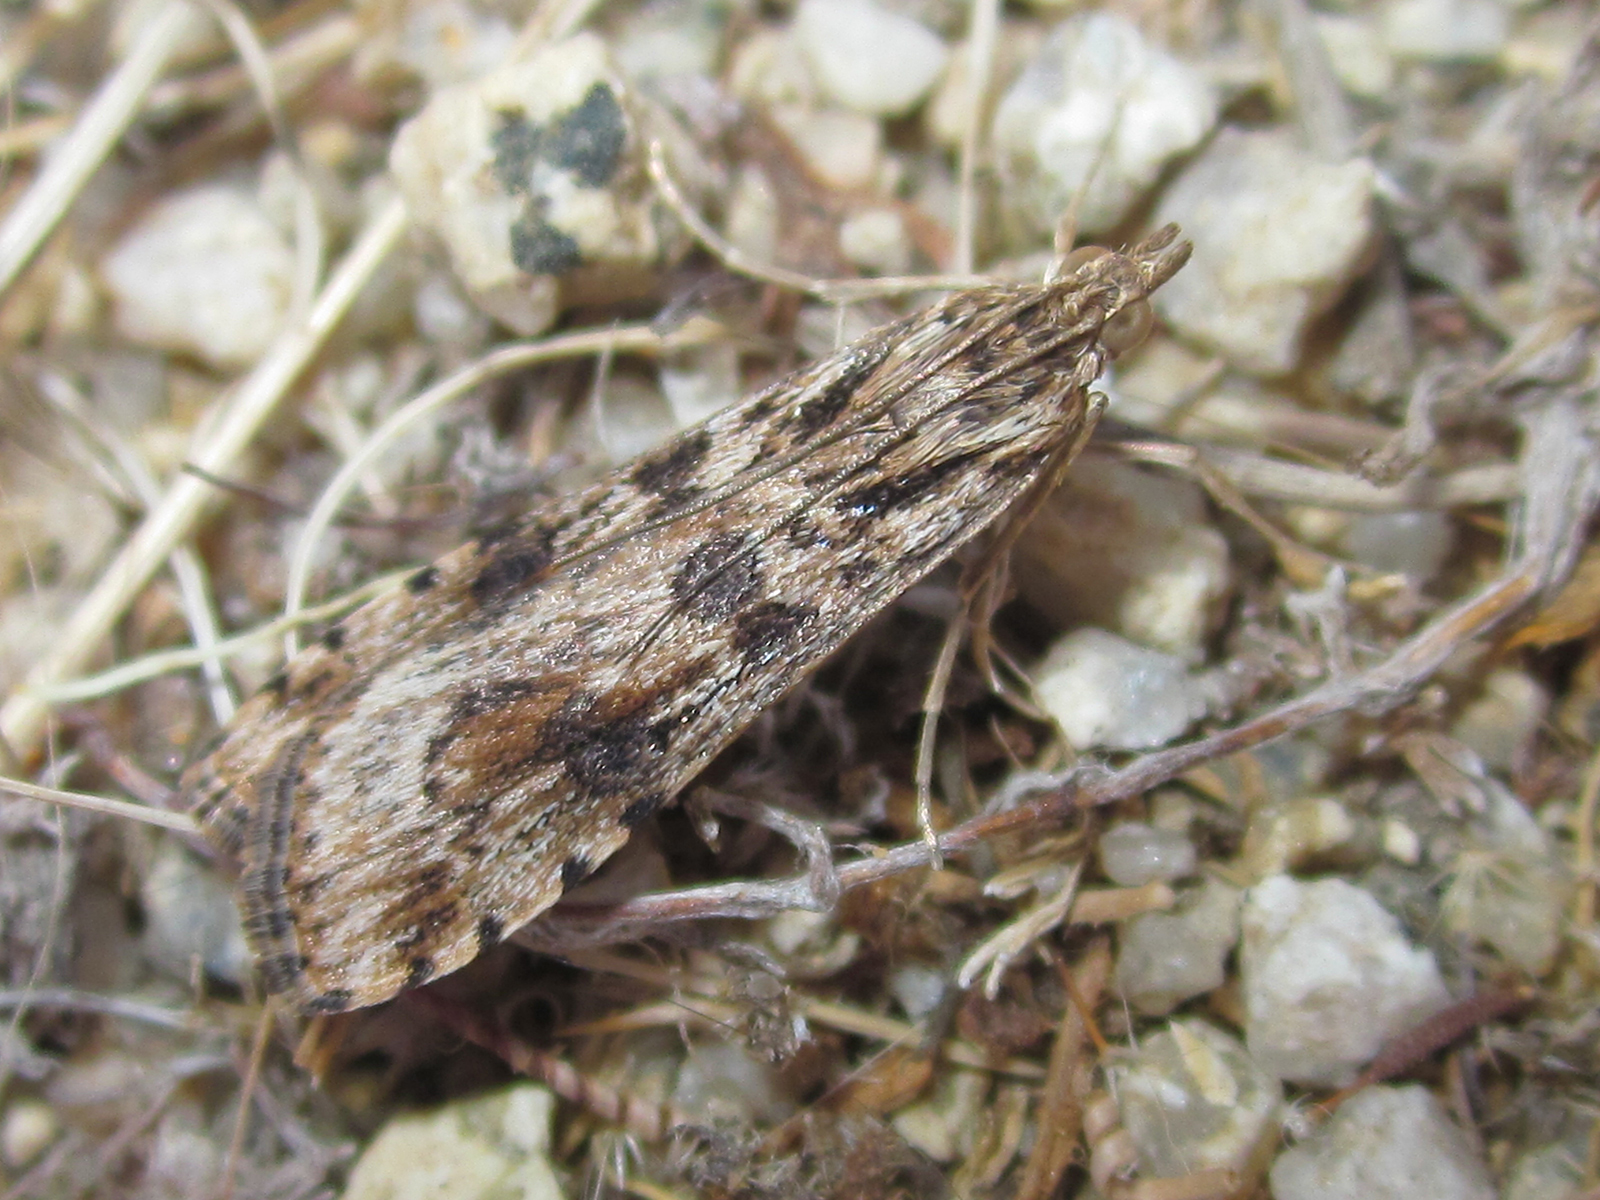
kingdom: Animalia
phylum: Arthropoda
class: Insecta
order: Lepidoptera
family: Crambidae
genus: Nomophila
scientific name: Nomophila distinctalis
